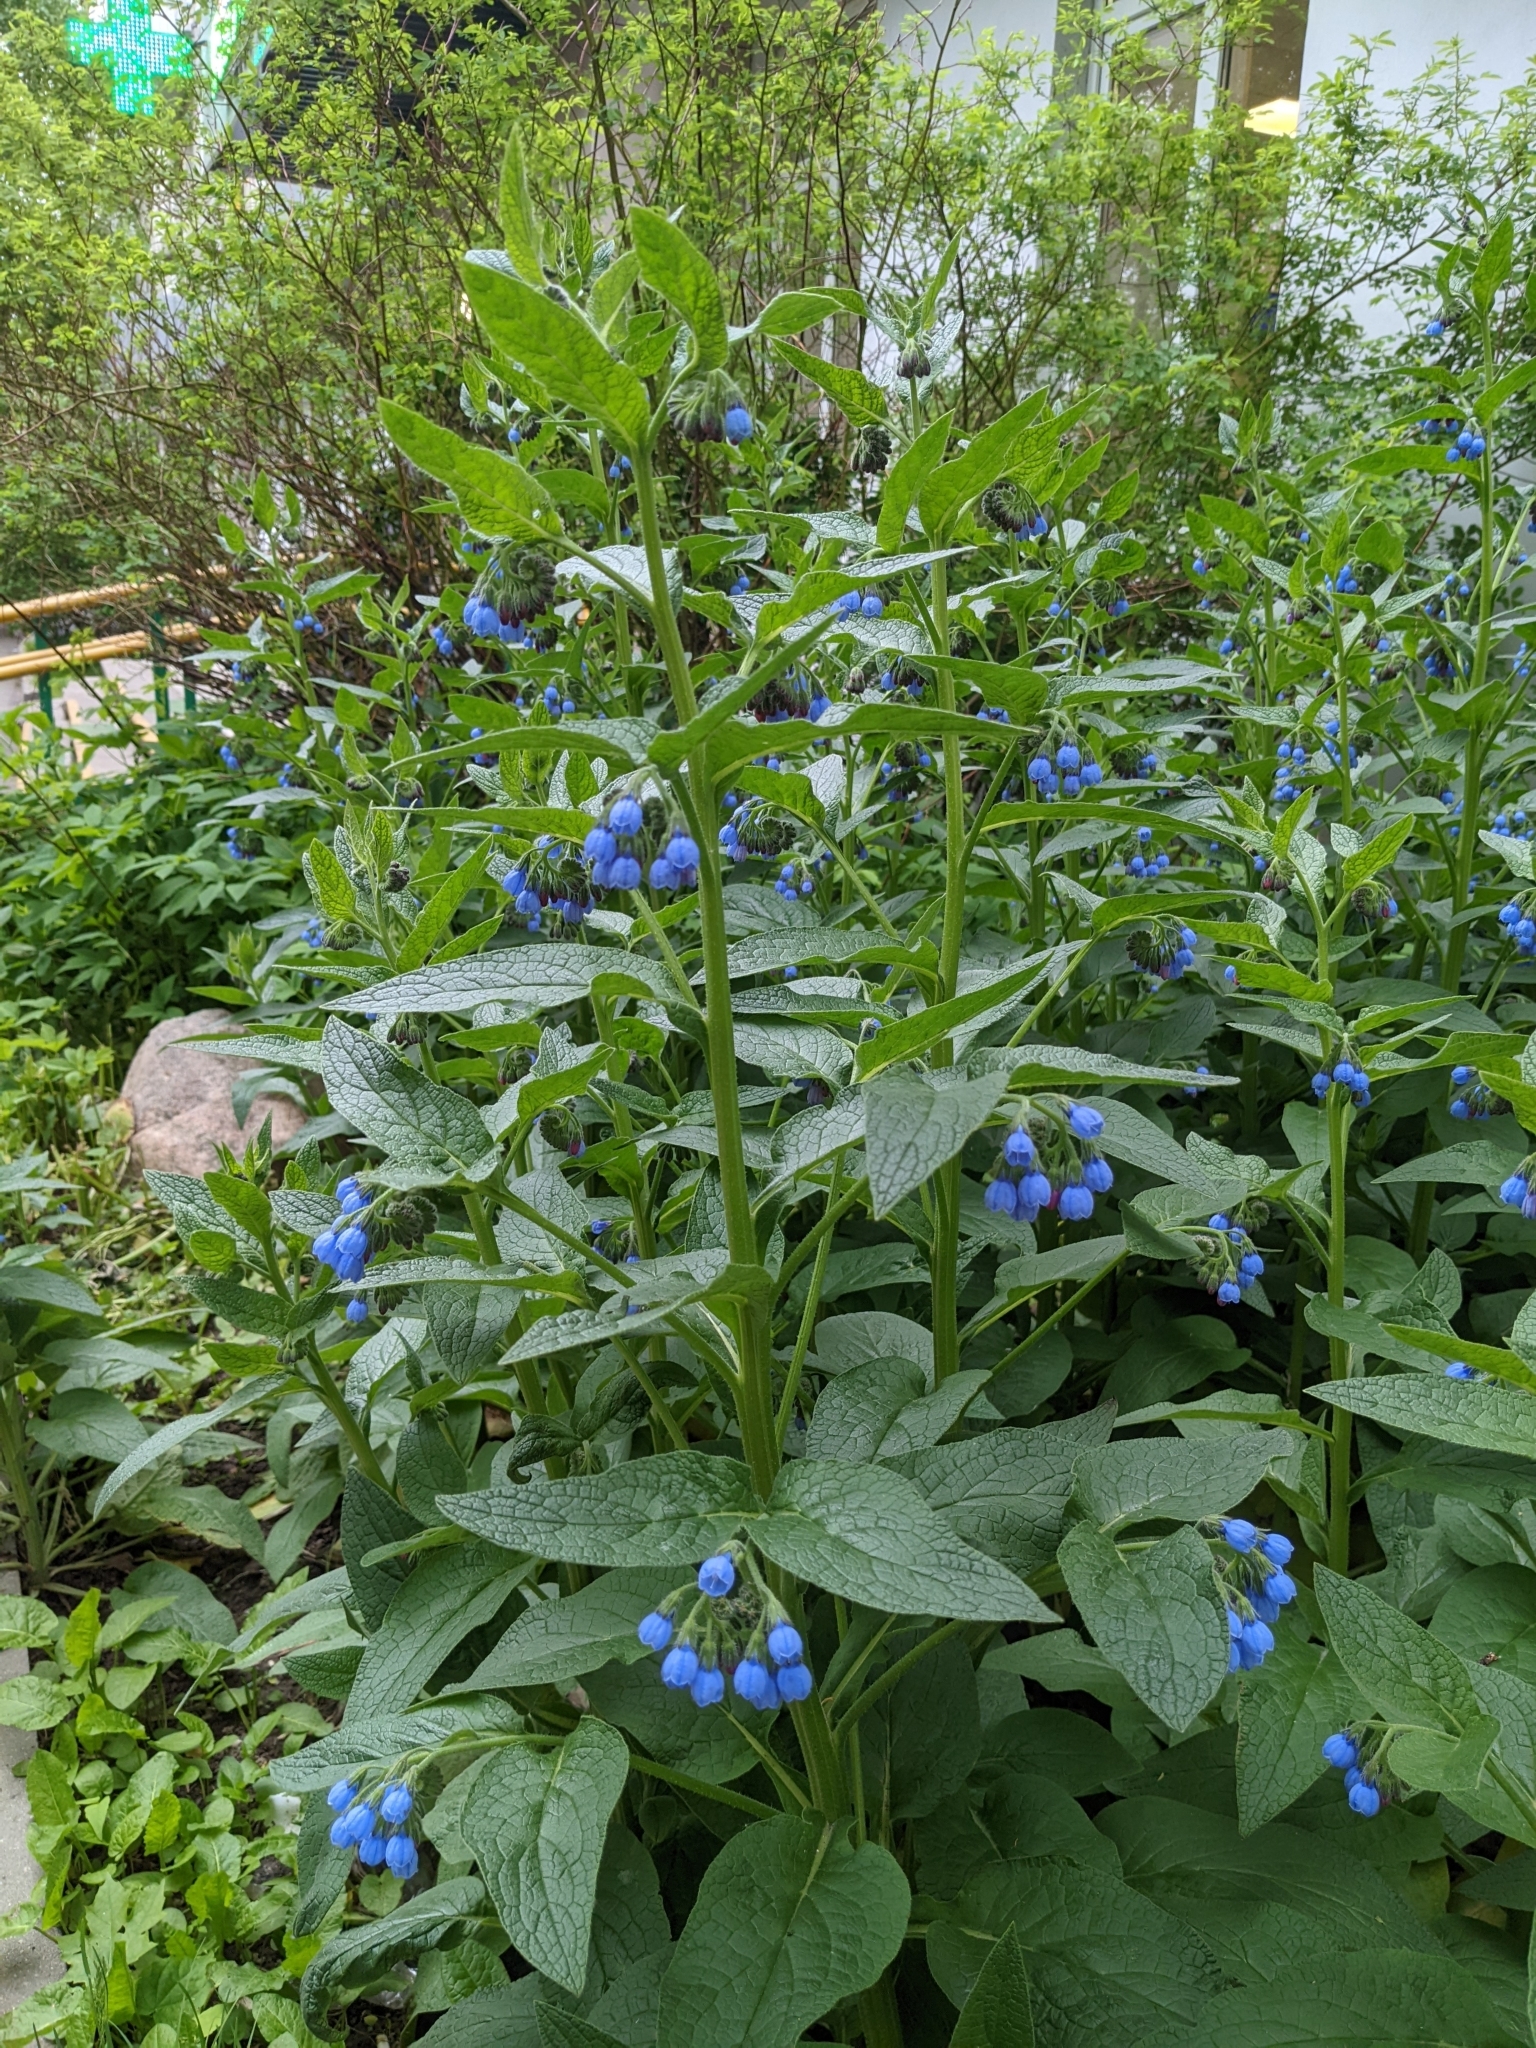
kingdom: Plantae
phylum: Tracheophyta
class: Magnoliopsida
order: Boraginales
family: Boraginaceae
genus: Symphytum
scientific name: Symphytum caucasicum
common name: Caucasian comfrey
